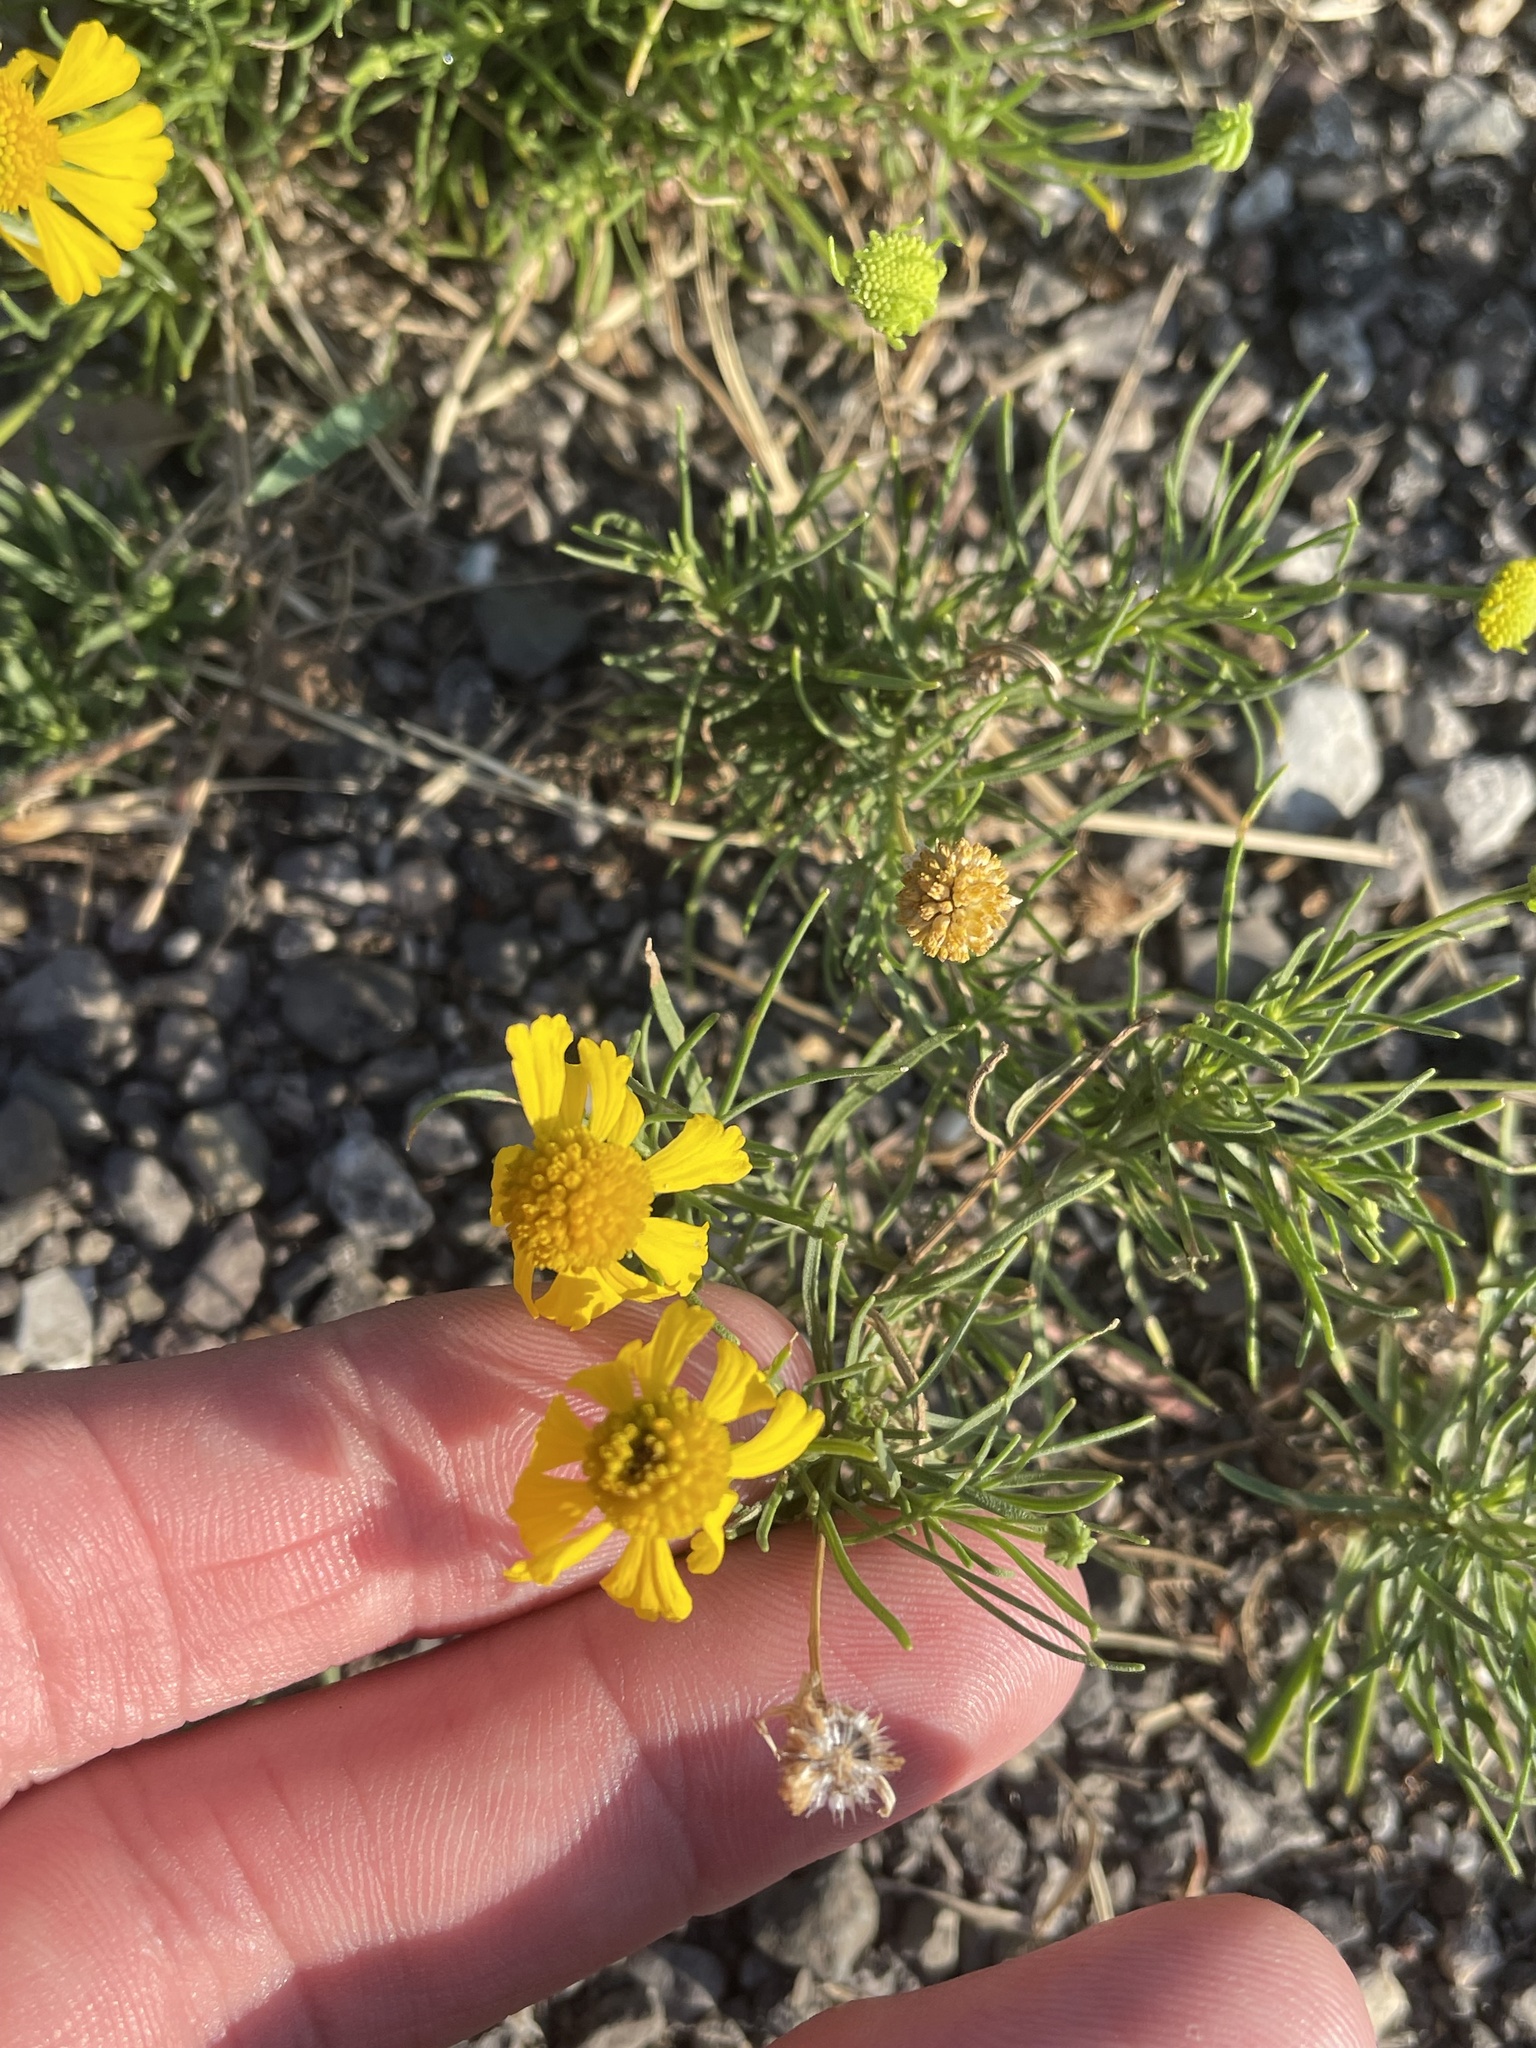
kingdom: Plantae
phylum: Tracheophyta
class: Magnoliopsida
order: Asterales
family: Asteraceae
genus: Helenium
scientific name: Helenium amarum
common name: Bitter sneezeweed
